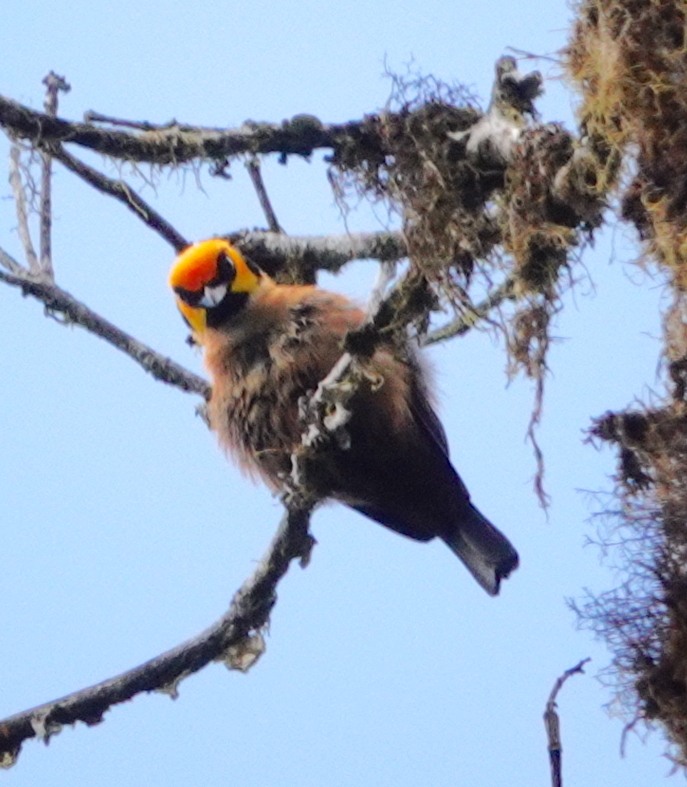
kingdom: Animalia
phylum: Chordata
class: Aves
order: Passeriformes
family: Thraupidae
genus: Tangara
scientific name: Tangara parzudakii
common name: Flame-faced tanager
